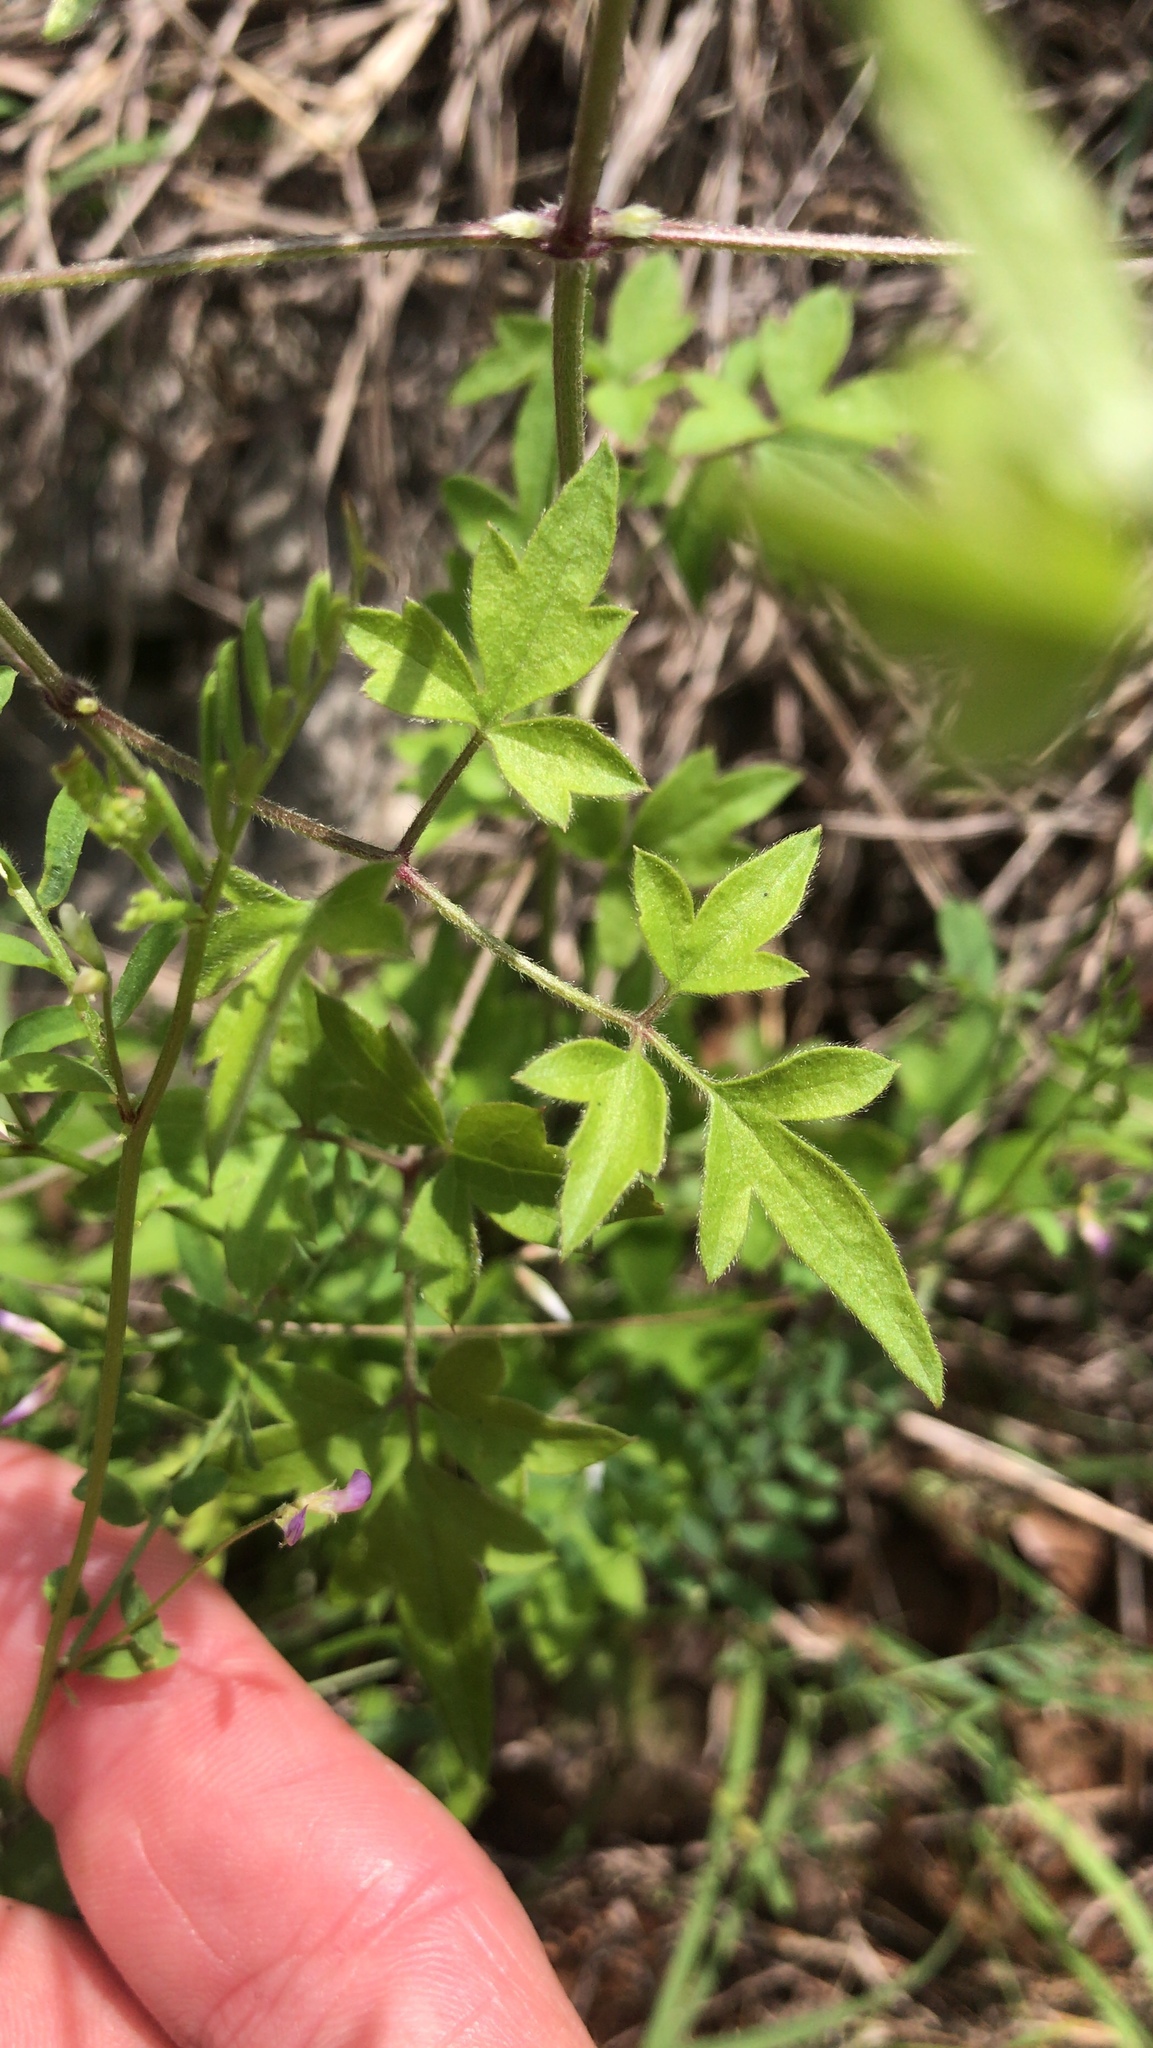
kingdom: Plantae
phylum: Tracheophyta
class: Magnoliopsida
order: Ranunculales
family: Ranunculaceae
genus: Clematis
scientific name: Clematis drummondii
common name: Texas virgin's bower
